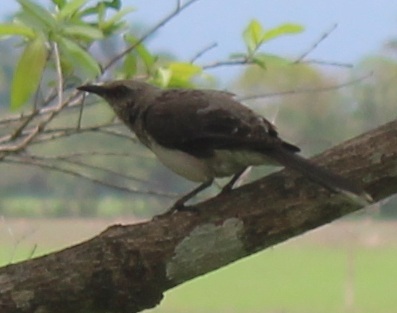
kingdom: Animalia
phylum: Chordata
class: Aves
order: Passeriformes
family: Mimidae
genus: Mimus
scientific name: Mimus gilvus
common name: Tropical mockingbird
